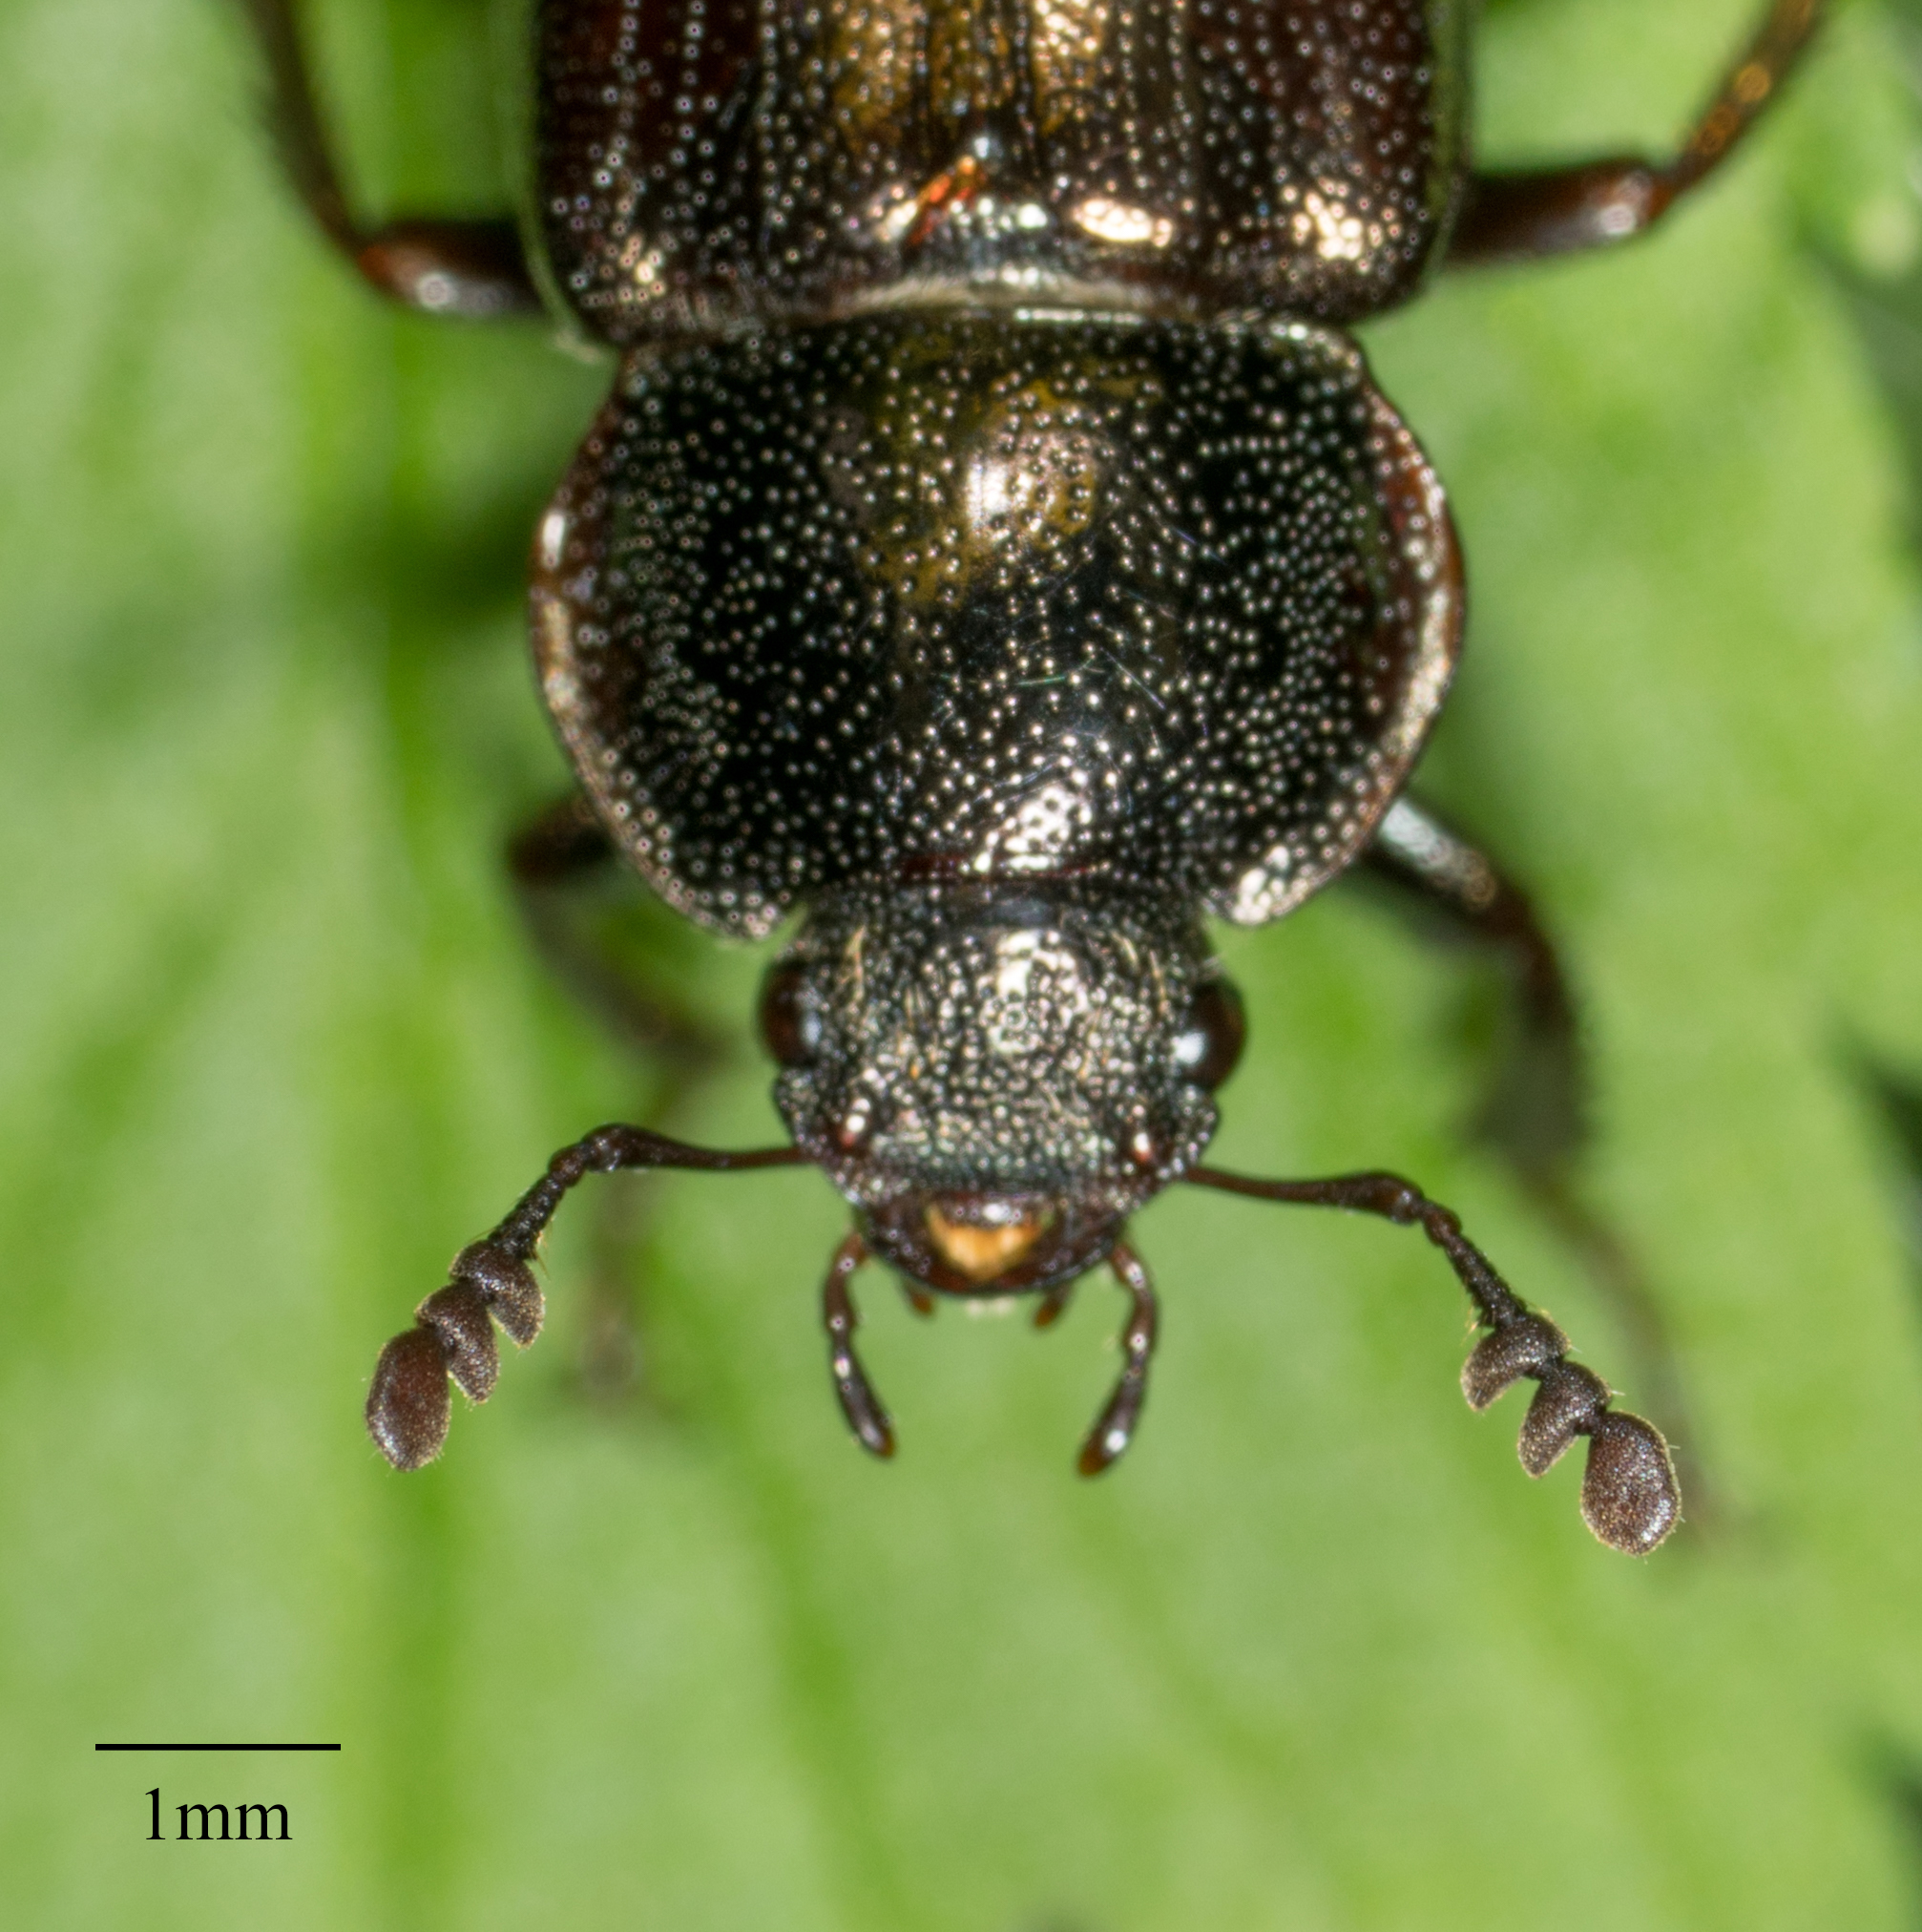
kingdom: Animalia
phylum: Arthropoda
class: Insecta
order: Coleoptera
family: Lucanidae
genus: Platyceroides
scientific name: Platyceroides aeneus
